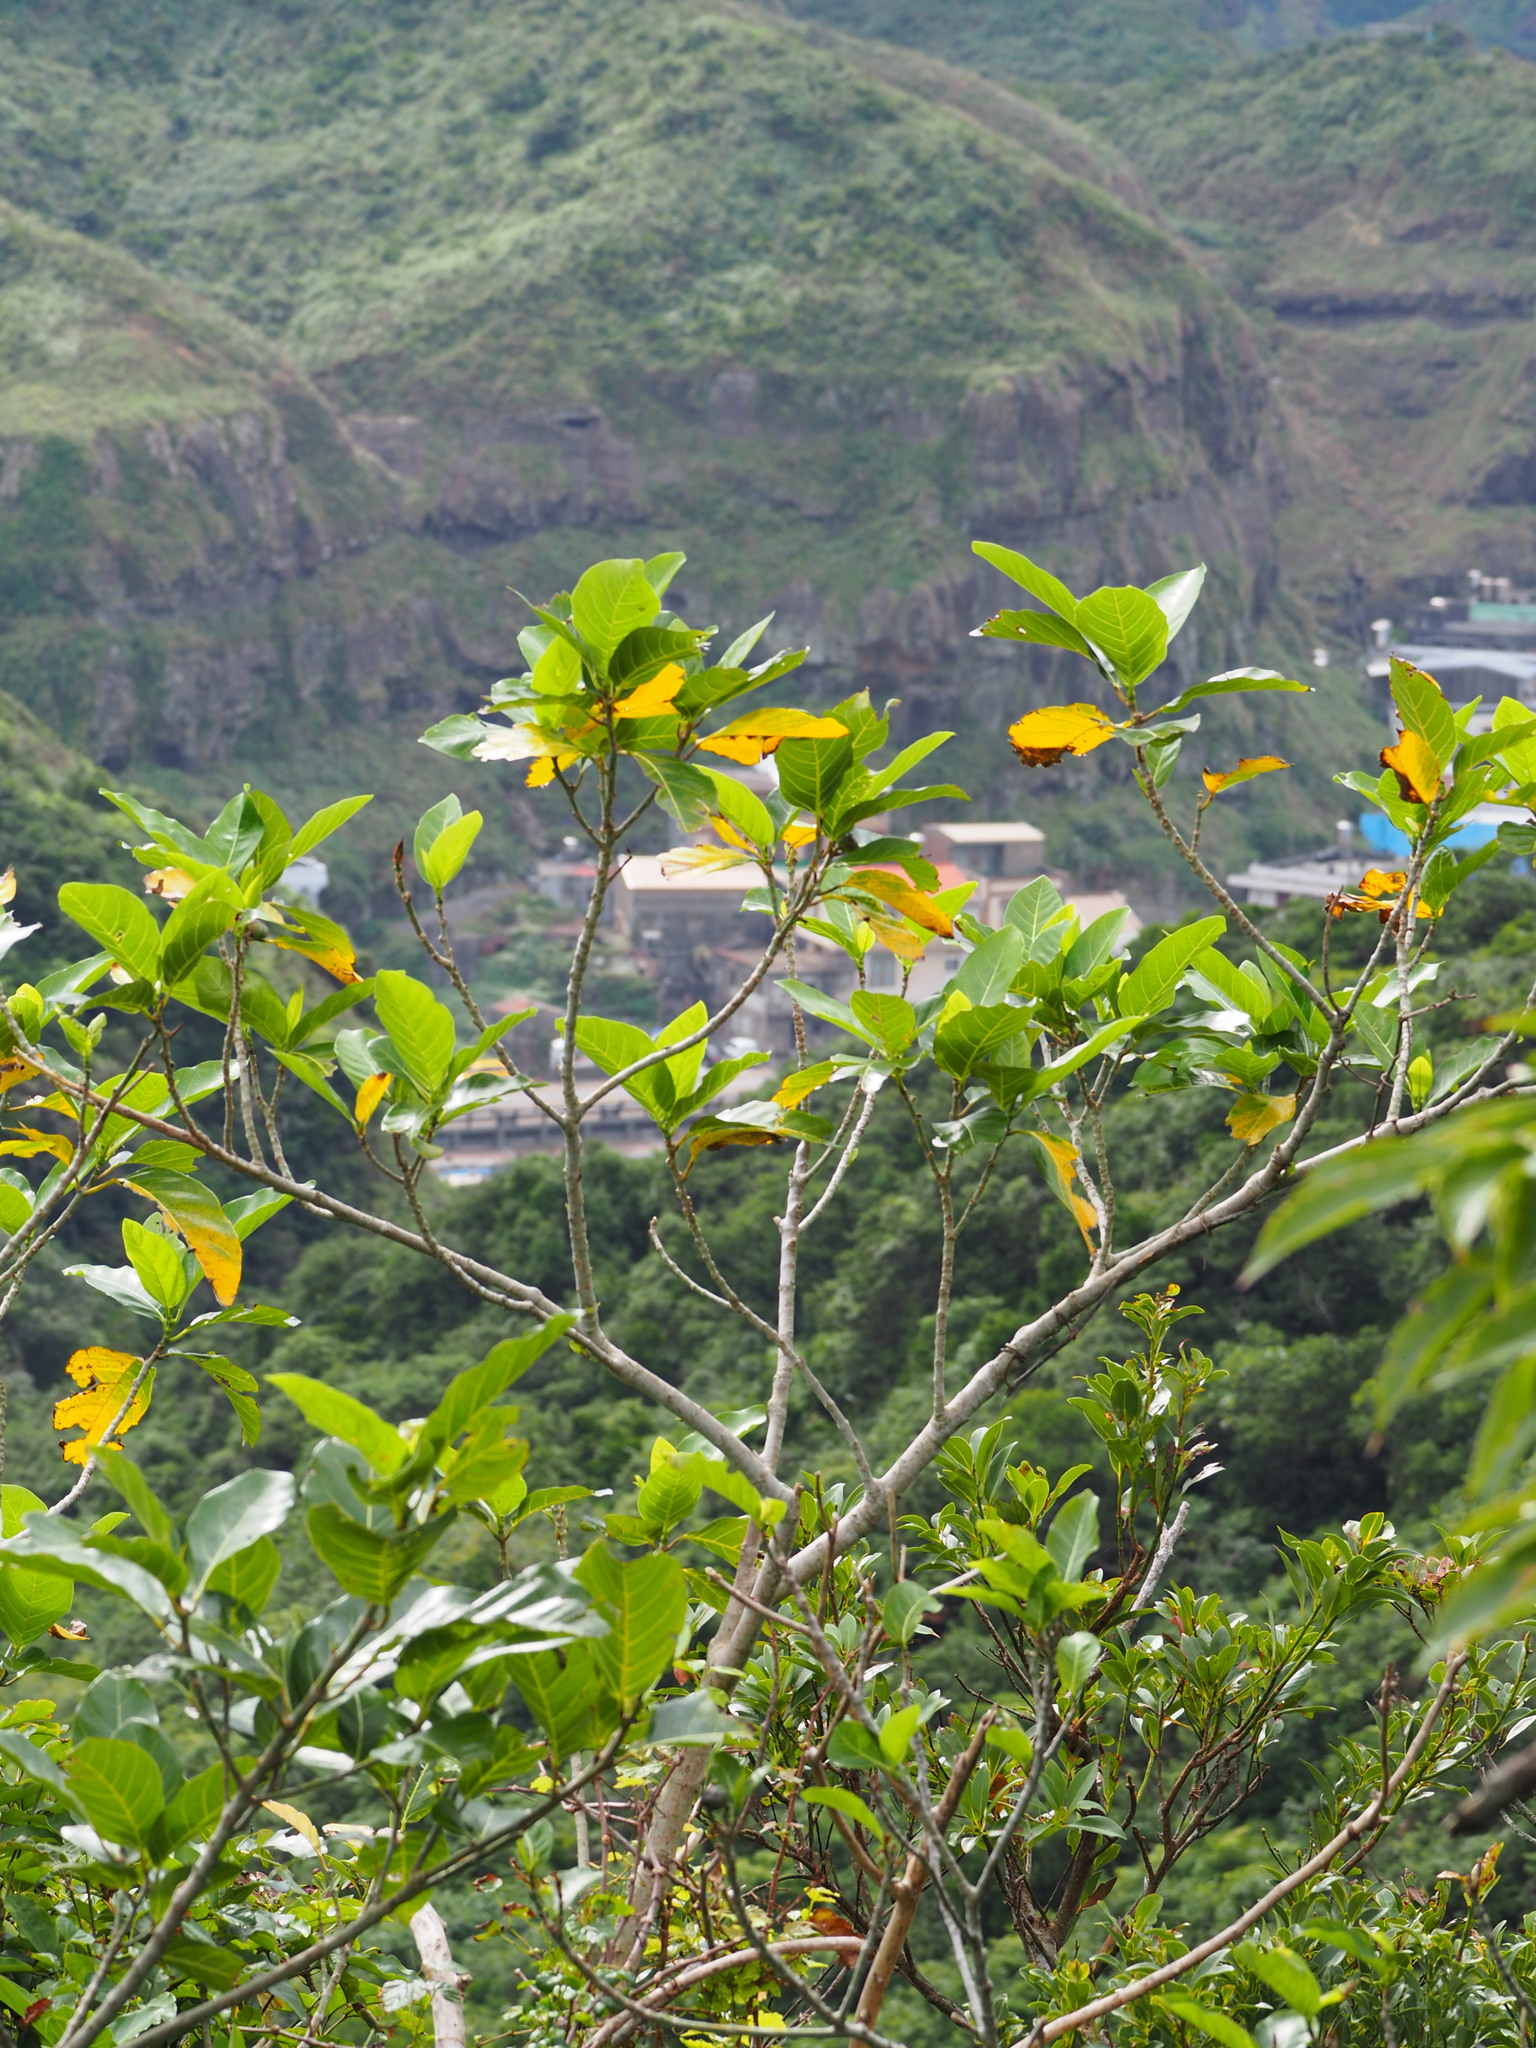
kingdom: Plantae
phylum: Tracheophyta
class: Magnoliopsida
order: Rosales
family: Moraceae
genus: Ficus
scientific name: Ficus septica
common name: Septic fig
